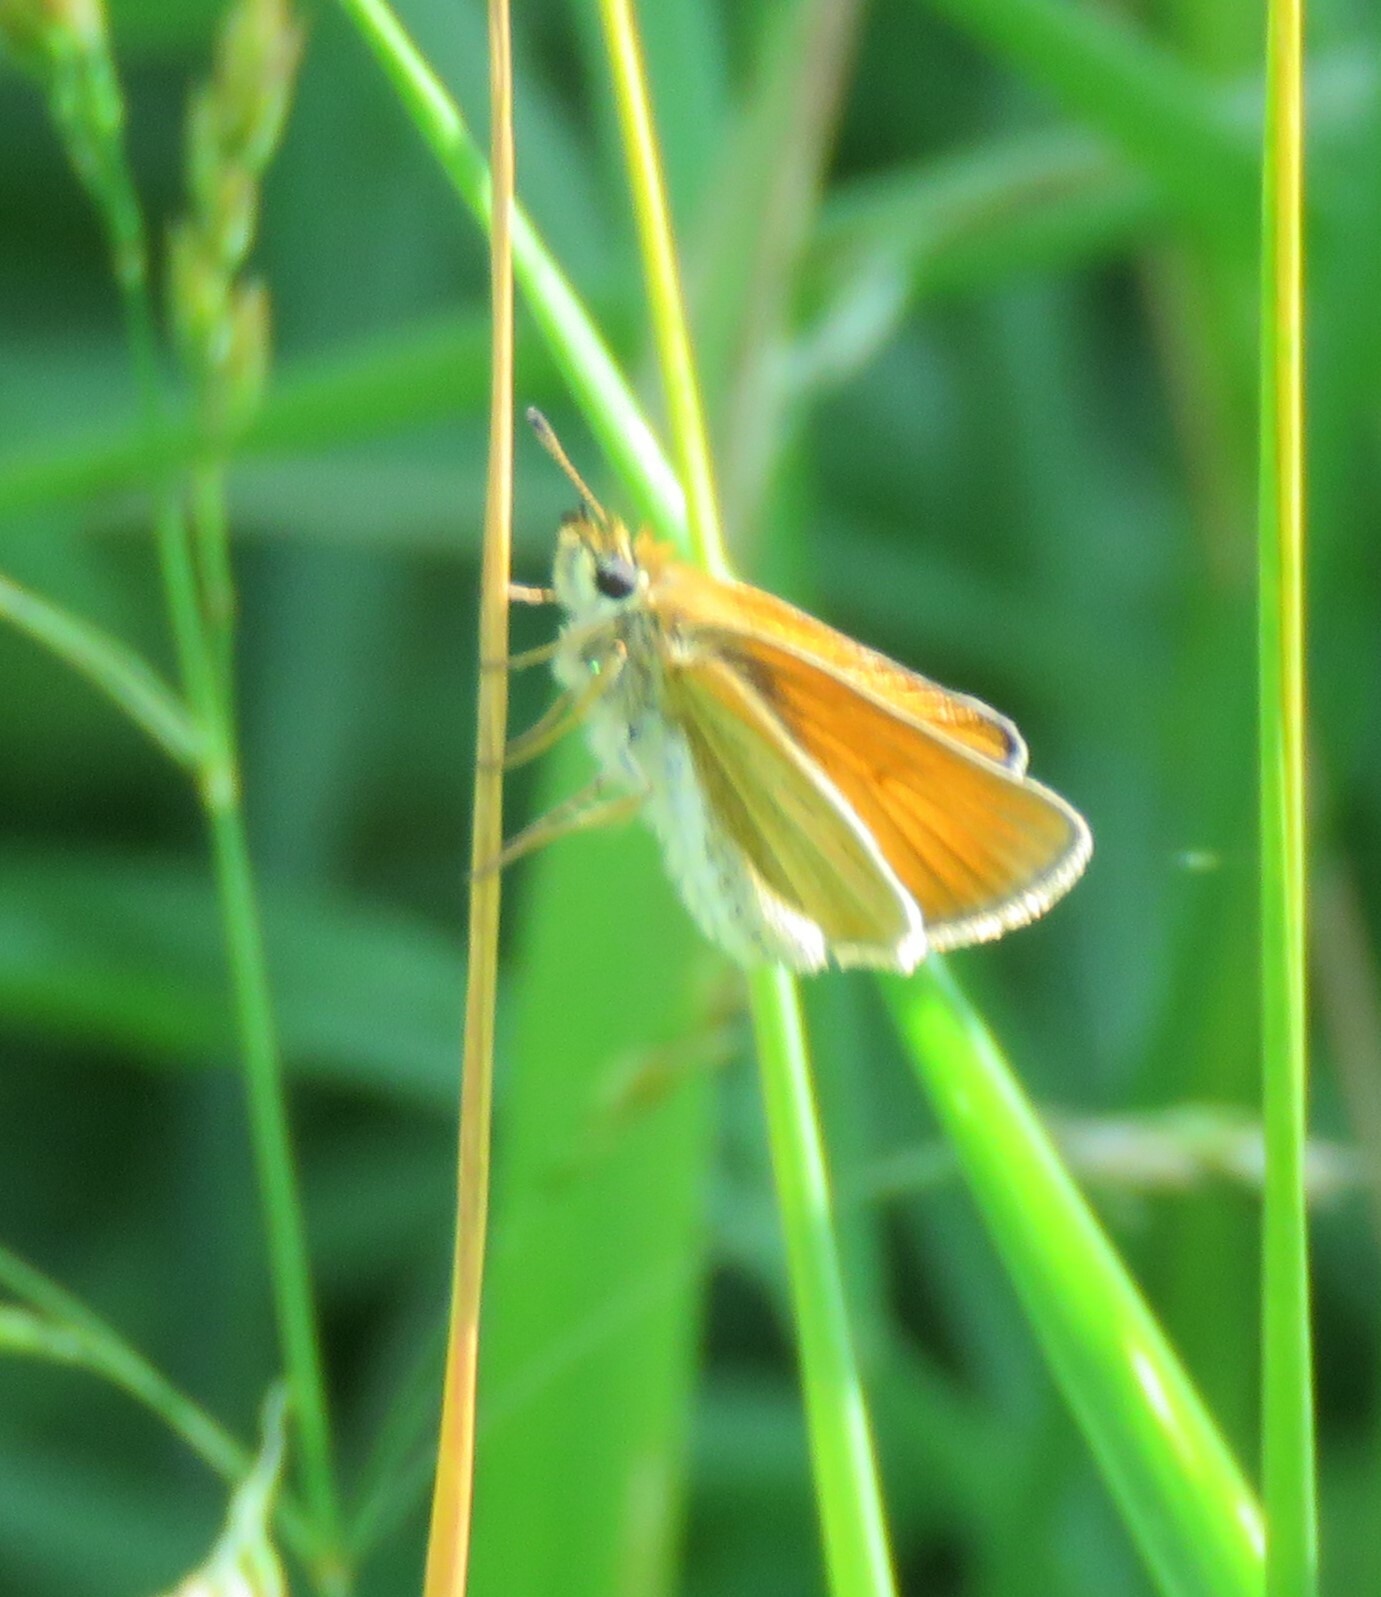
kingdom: Animalia
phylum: Arthropoda
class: Insecta
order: Lepidoptera
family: Hesperiidae
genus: Thymelicus
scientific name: Thymelicus lineola
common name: Essex skipper
